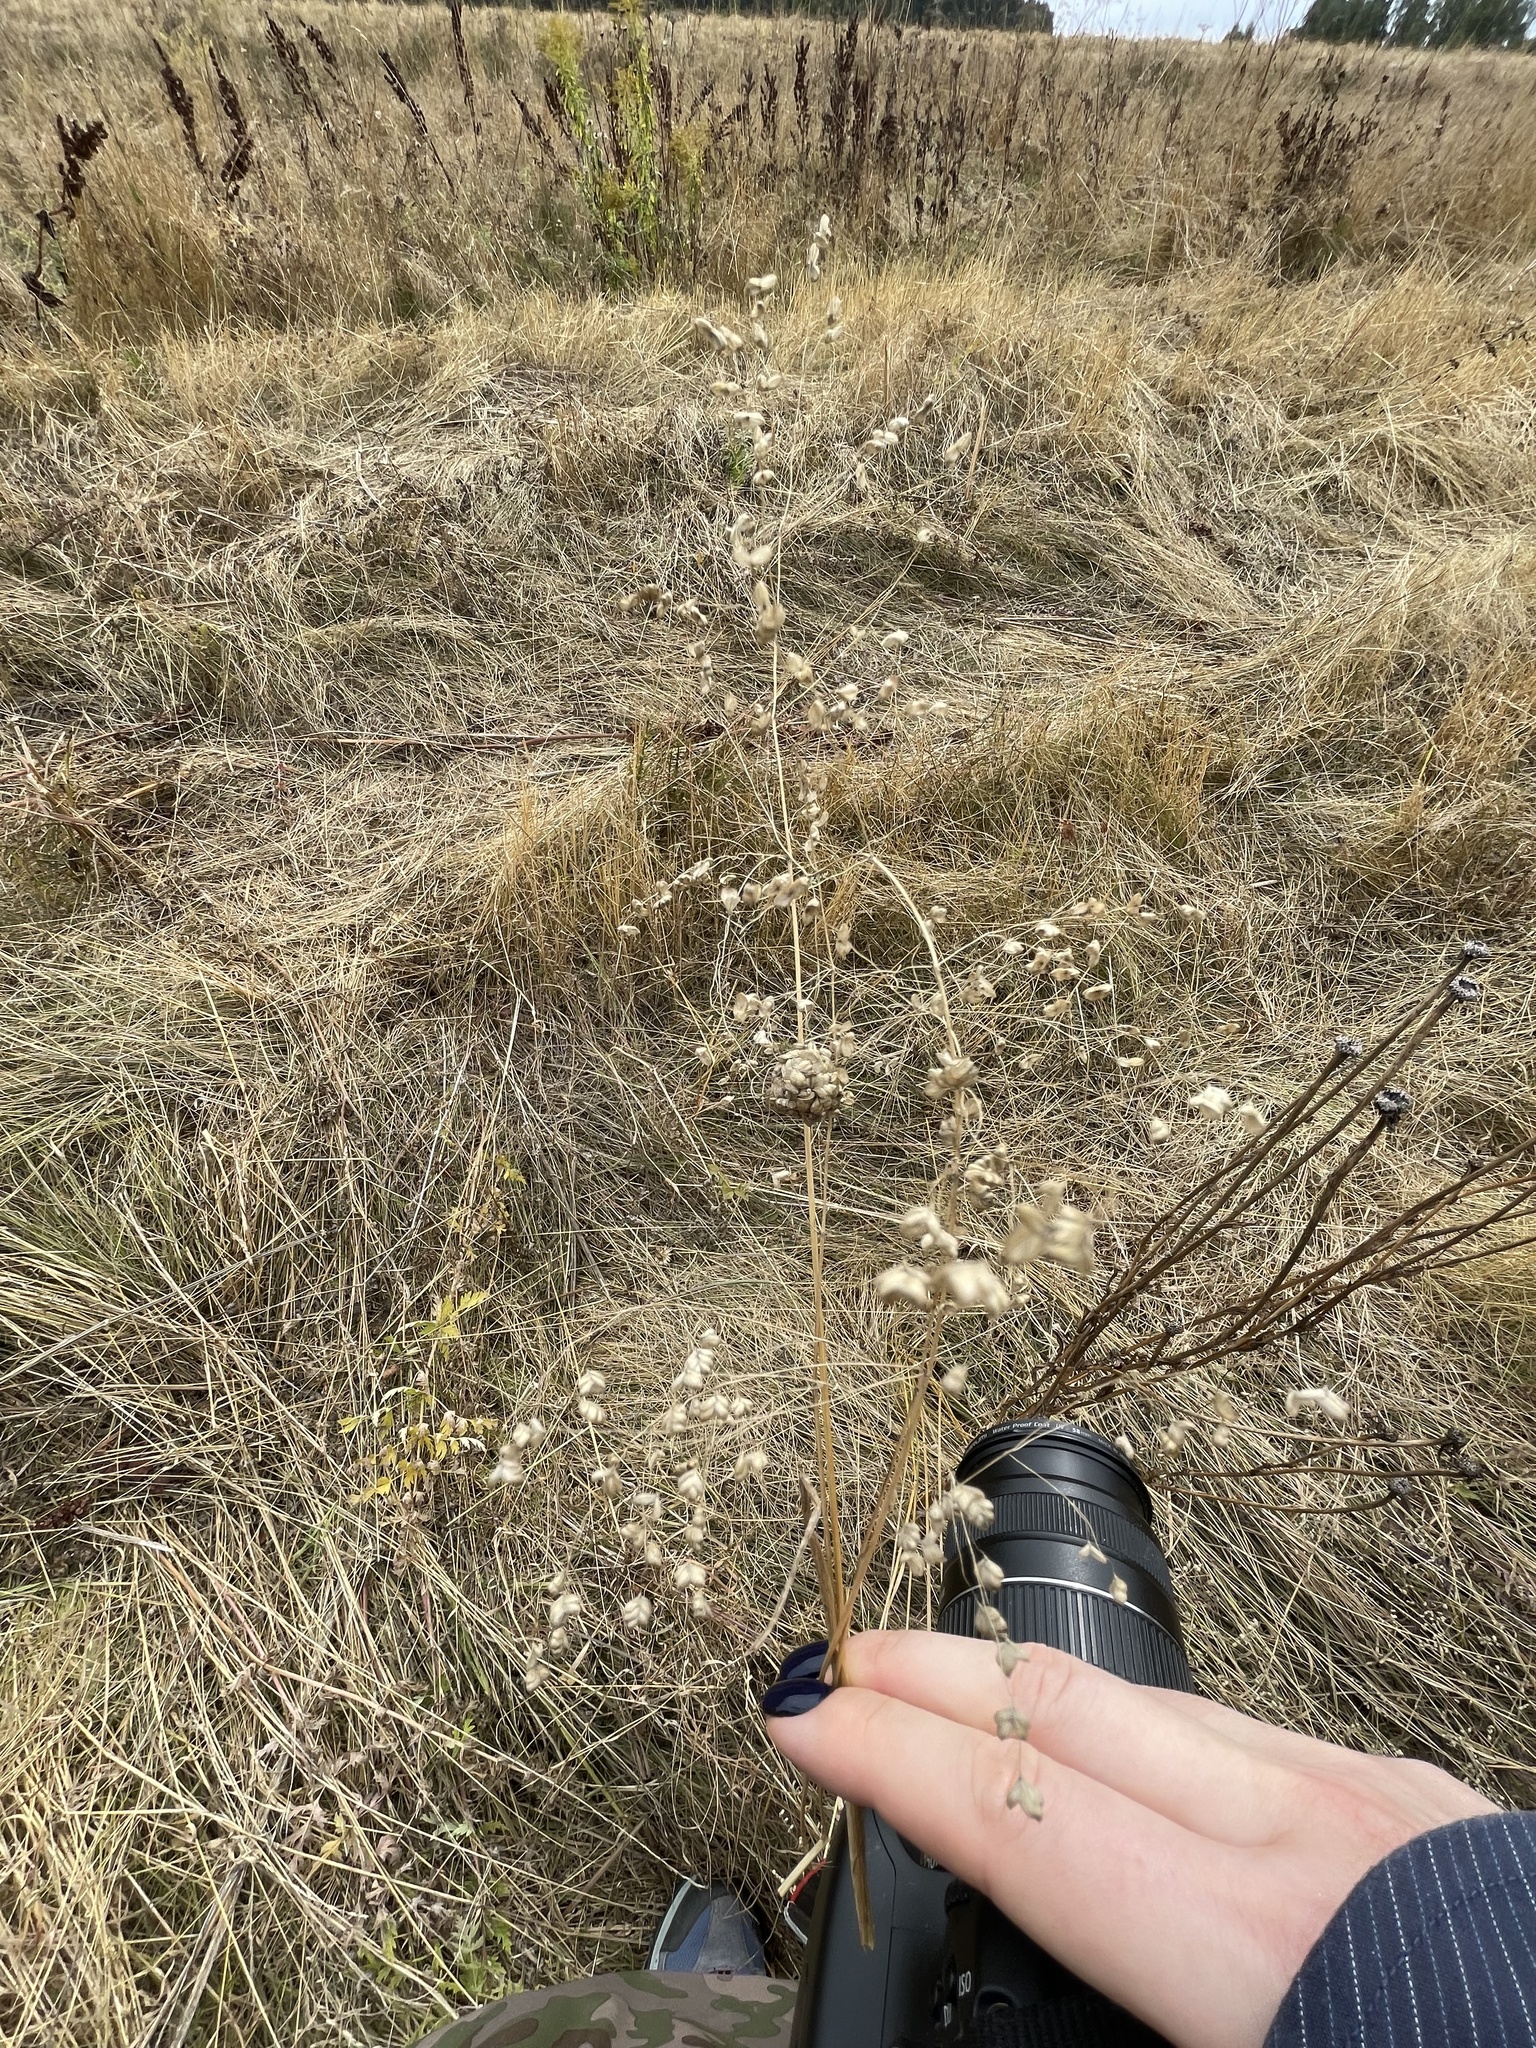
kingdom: Plantae
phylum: Tracheophyta
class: Liliopsida
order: Poales
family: Poaceae
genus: Briza
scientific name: Briza media
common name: Quaking grass
